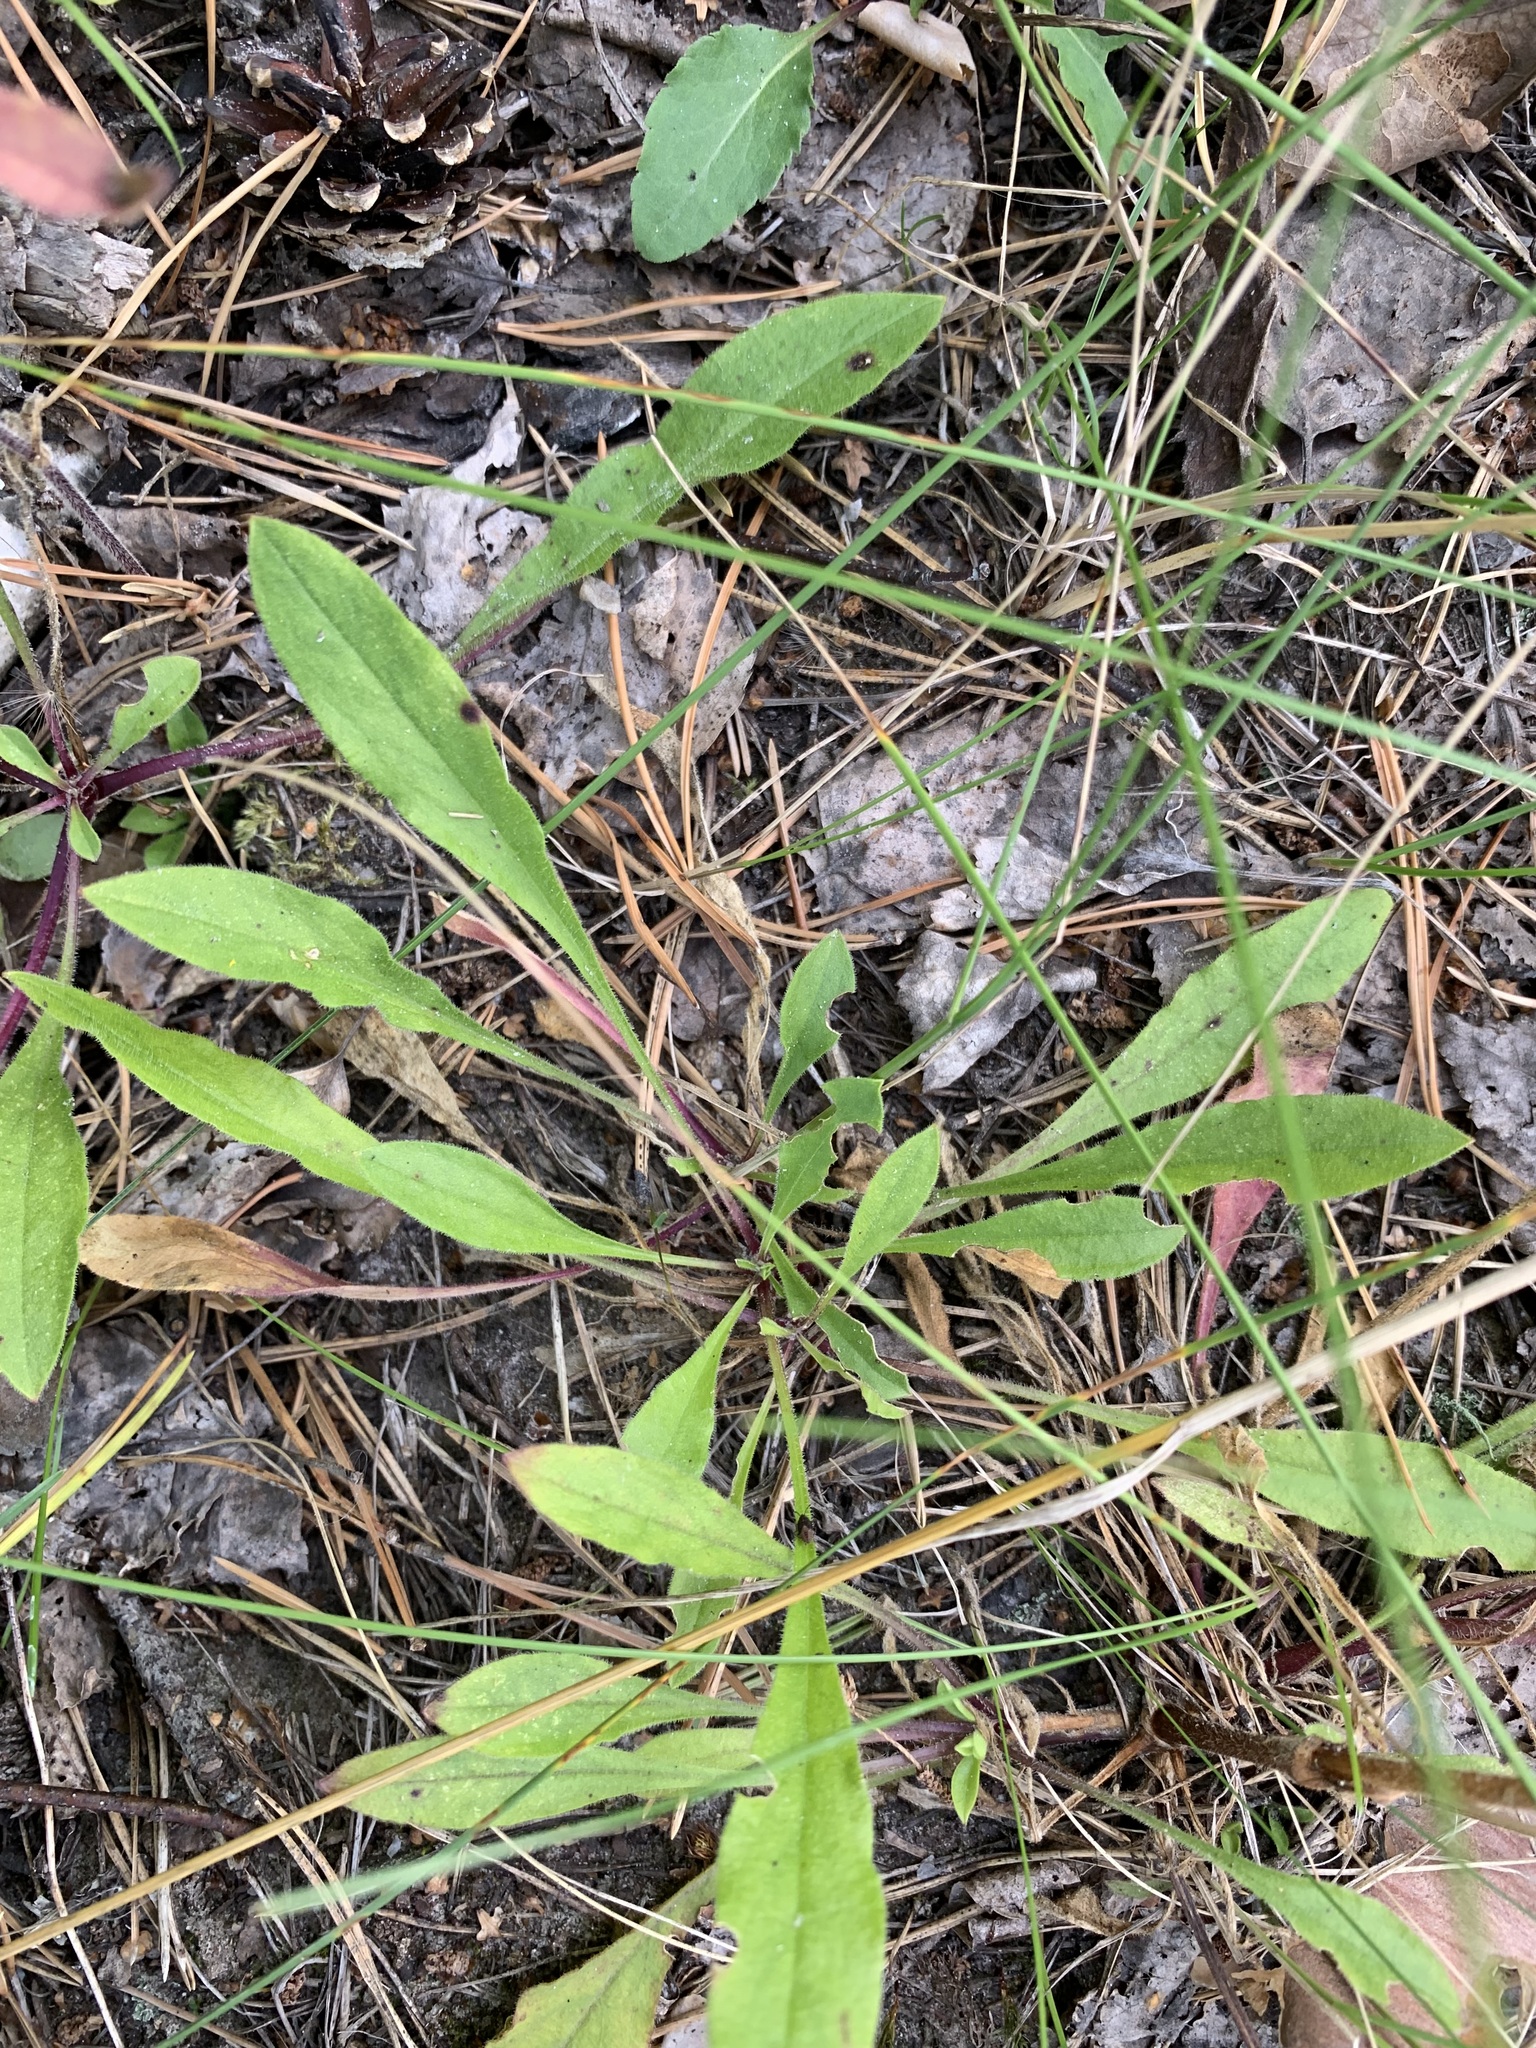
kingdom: Plantae
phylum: Tracheophyta
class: Magnoliopsida
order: Caryophyllales
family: Caryophyllaceae
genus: Silene
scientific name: Silene nutans
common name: Nottingham catchfly
